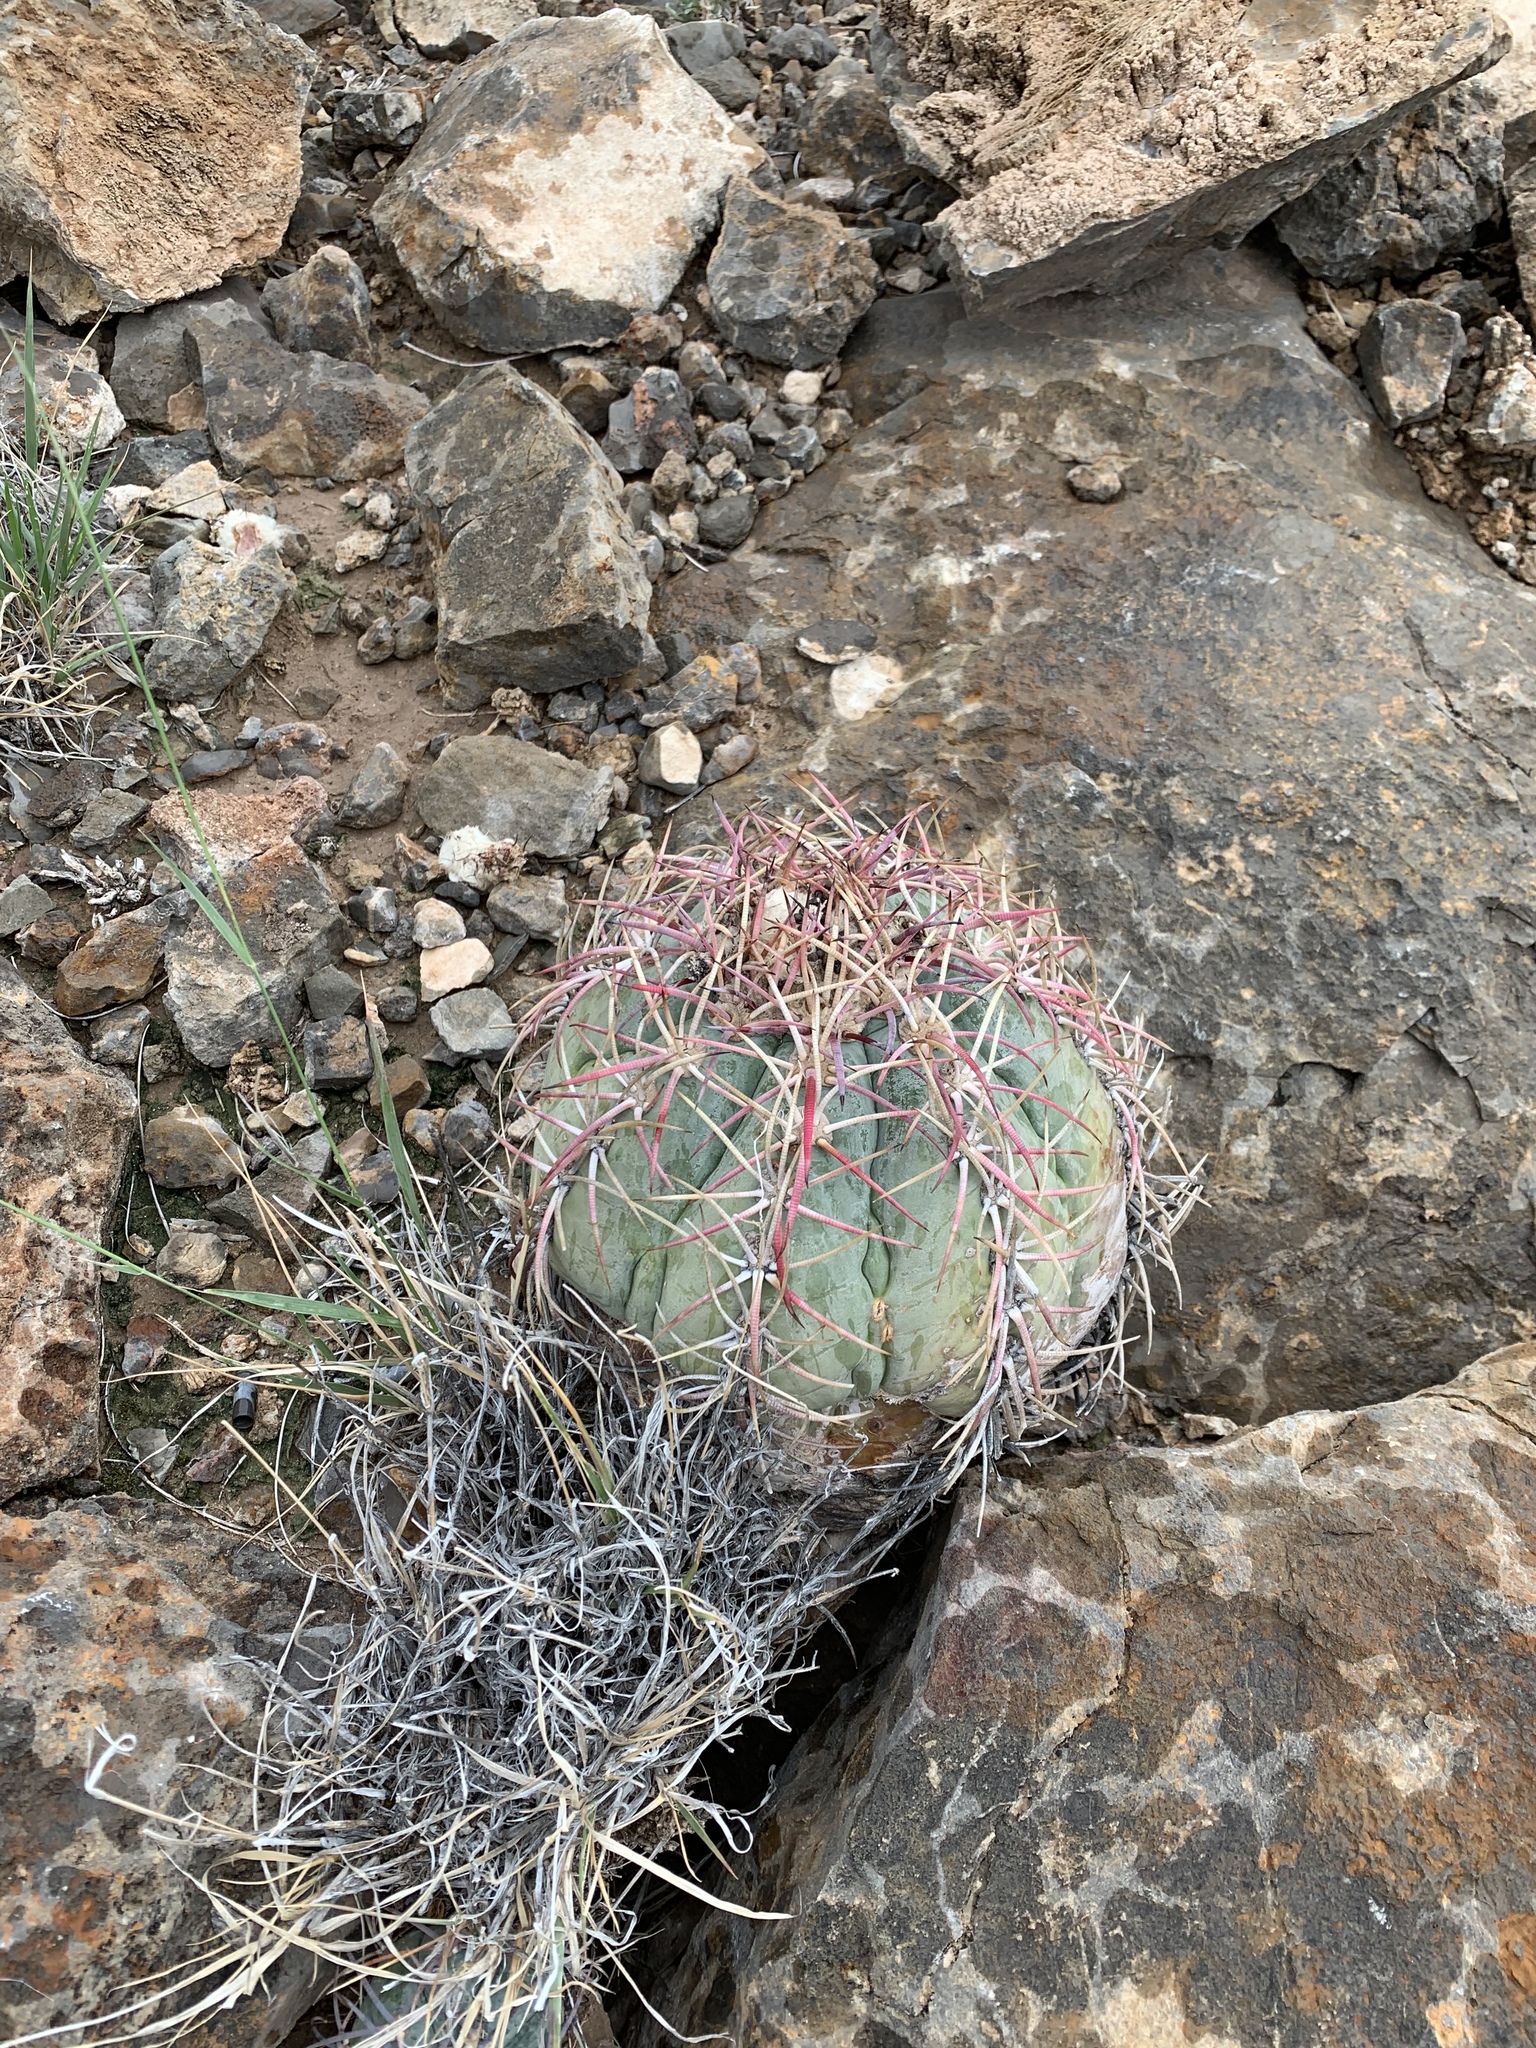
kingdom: Plantae
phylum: Tracheophyta
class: Magnoliopsida
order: Caryophyllales
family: Cactaceae
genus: Echinocactus
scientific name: Echinocactus horizonthalonius
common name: Devilshead
